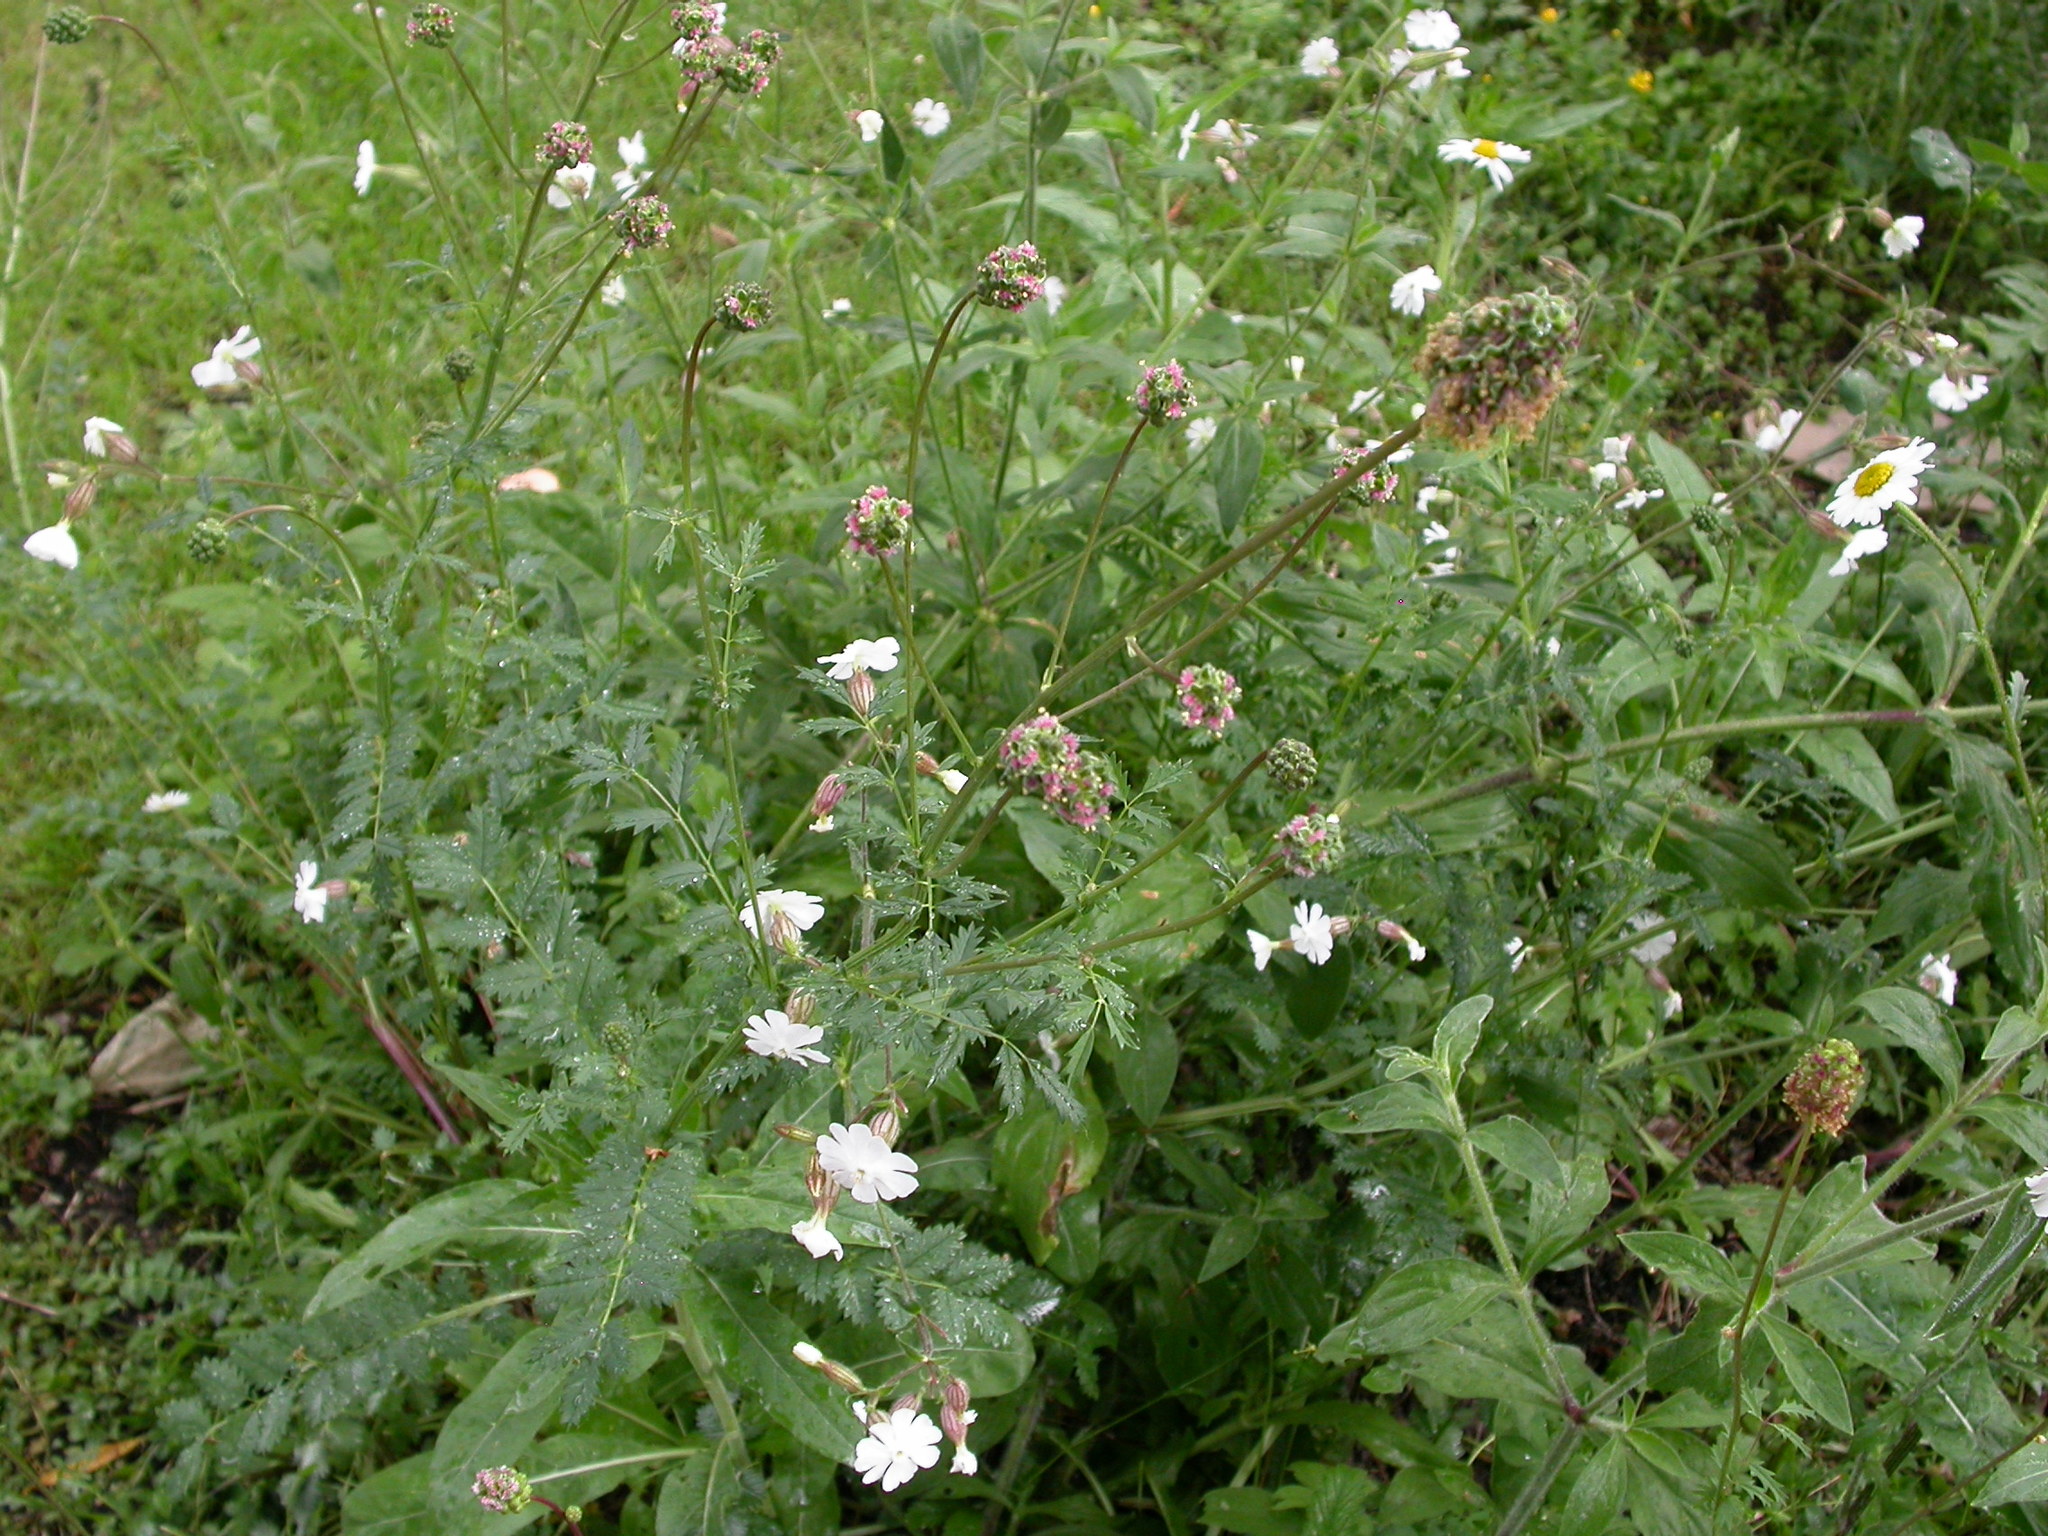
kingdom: Plantae
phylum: Tracheophyta
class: Magnoliopsida
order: Rosales
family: Rosaceae
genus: Poterium
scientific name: Poterium sanguisorba
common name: Salad burnet
